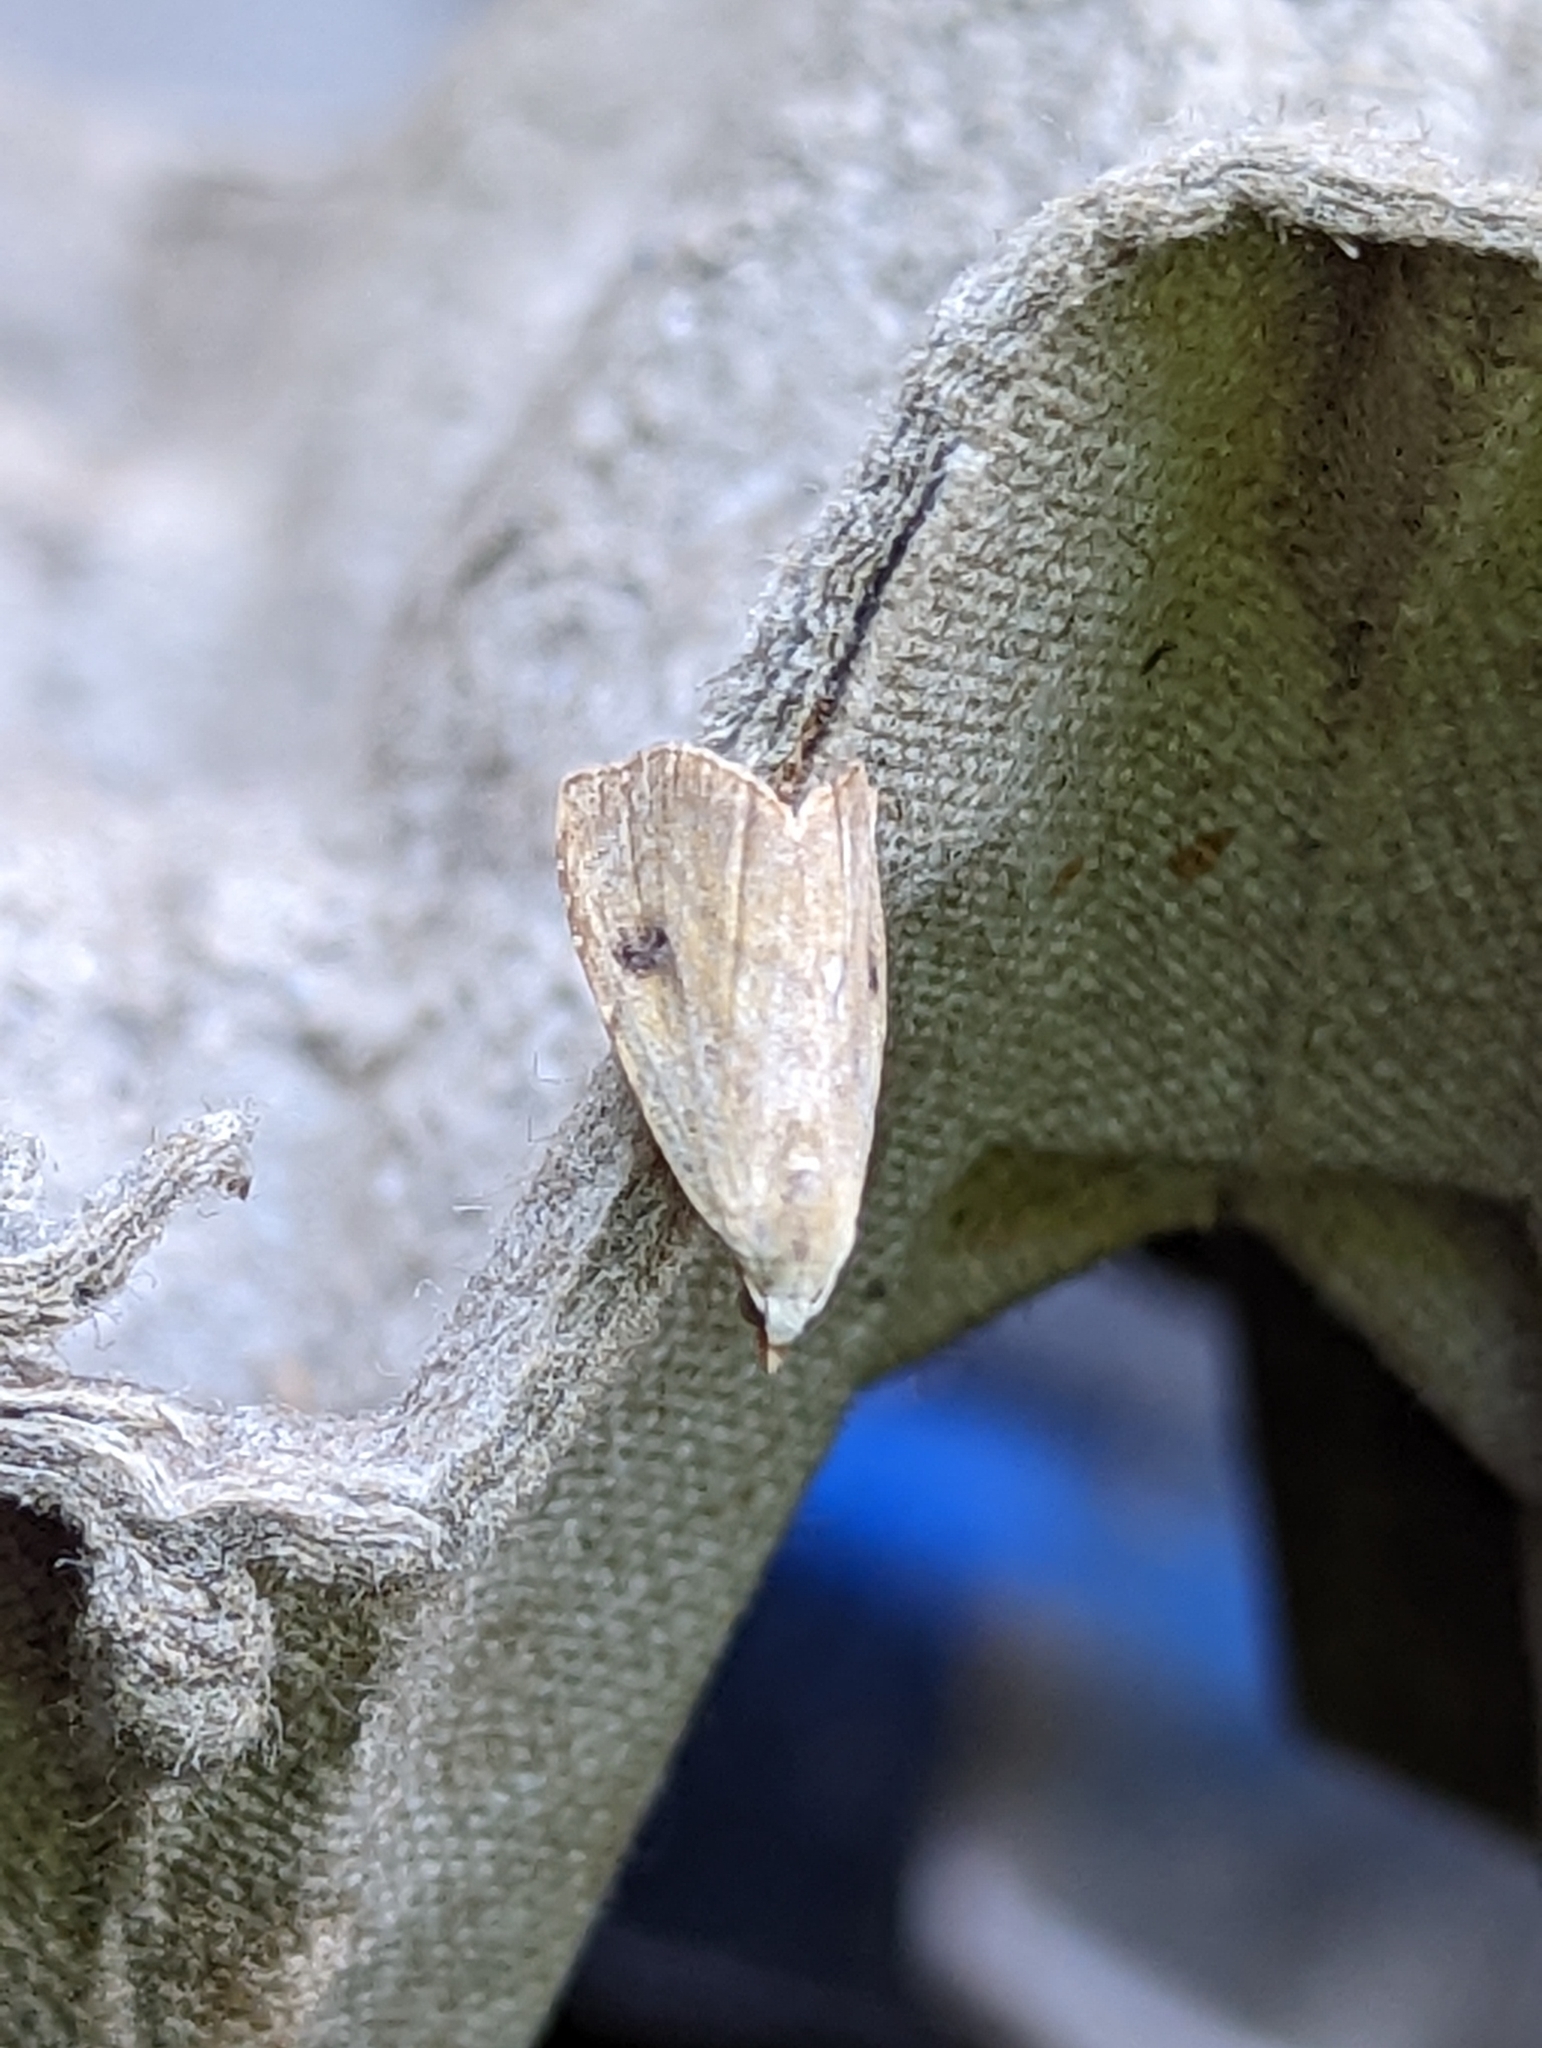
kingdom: Animalia
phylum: Arthropoda
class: Insecta
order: Lepidoptera
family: Erebidae
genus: Rivula
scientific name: Rivula sericealis
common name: Straw dot
